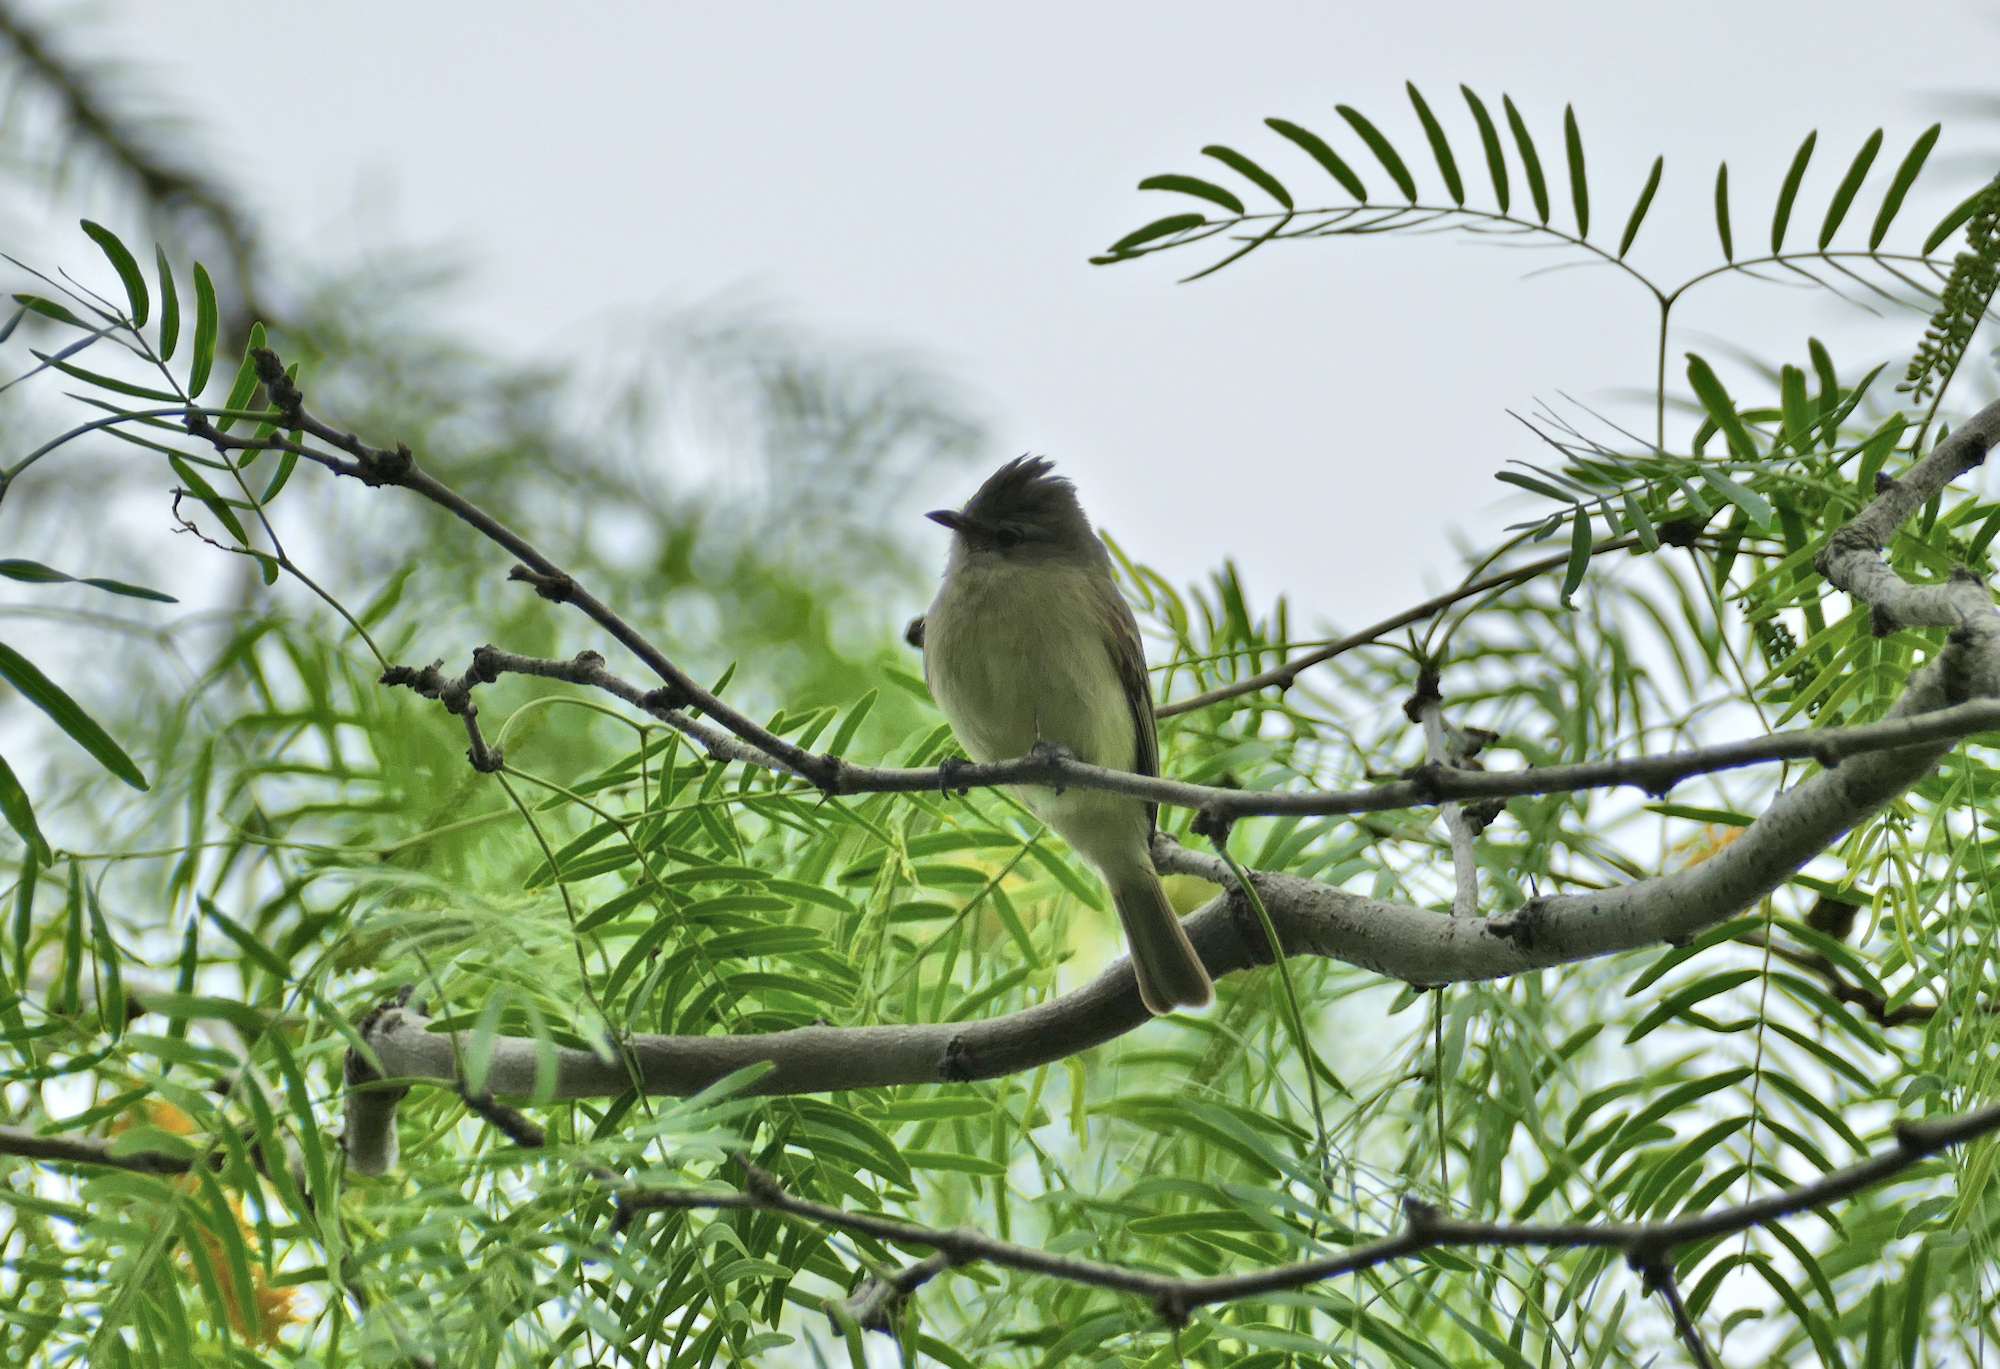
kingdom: Animalia
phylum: Chordata
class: Aves
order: Passeriformes
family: Tyrannidae
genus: Camptostoma
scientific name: Camptostoma imberbe
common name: Northern beardless-tyrannulet
